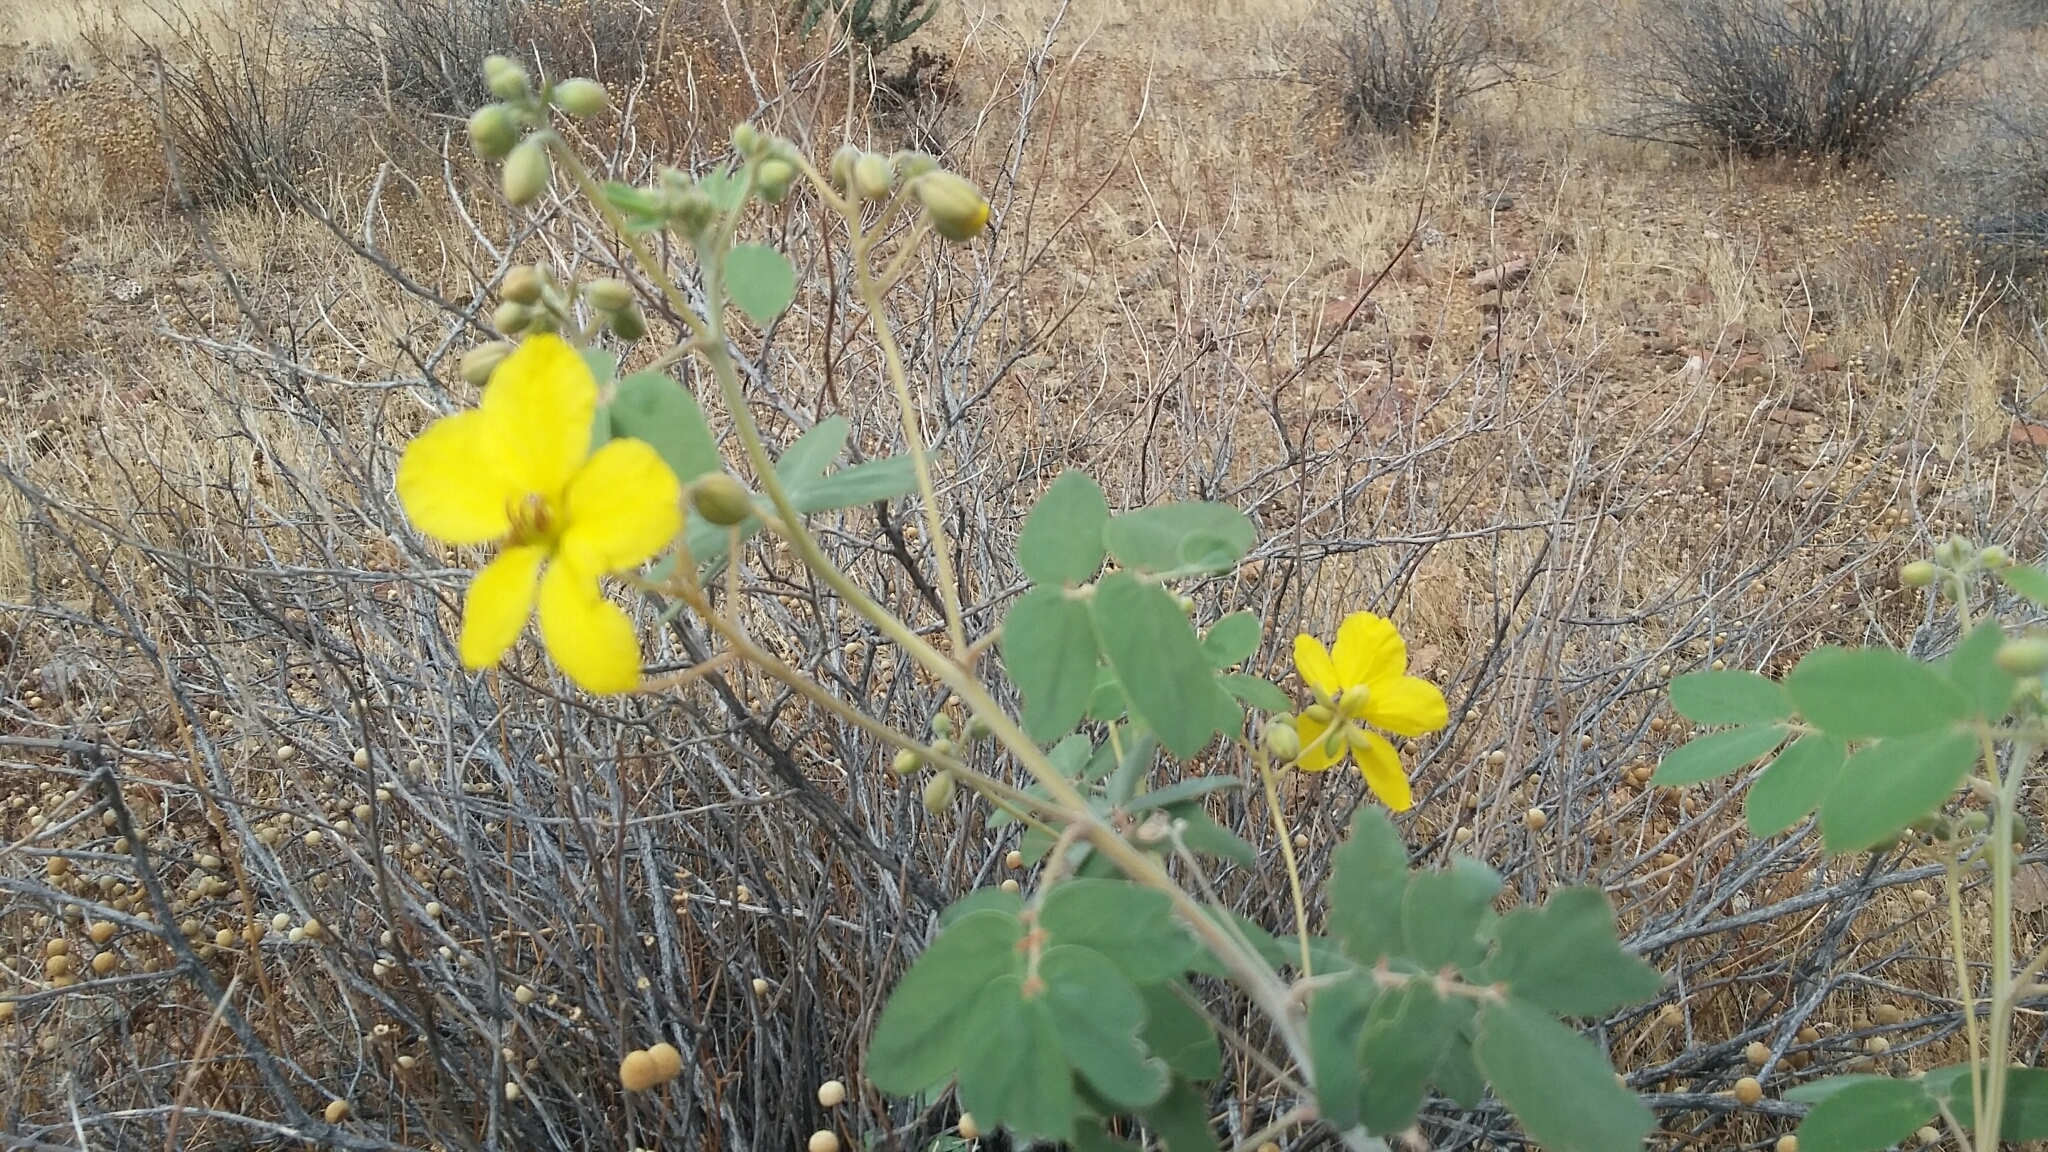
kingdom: Plantae
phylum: Tracheophyta
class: Magnoliopsida
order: Fabales
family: Fabaceae
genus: Senna
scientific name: Senna covesii
